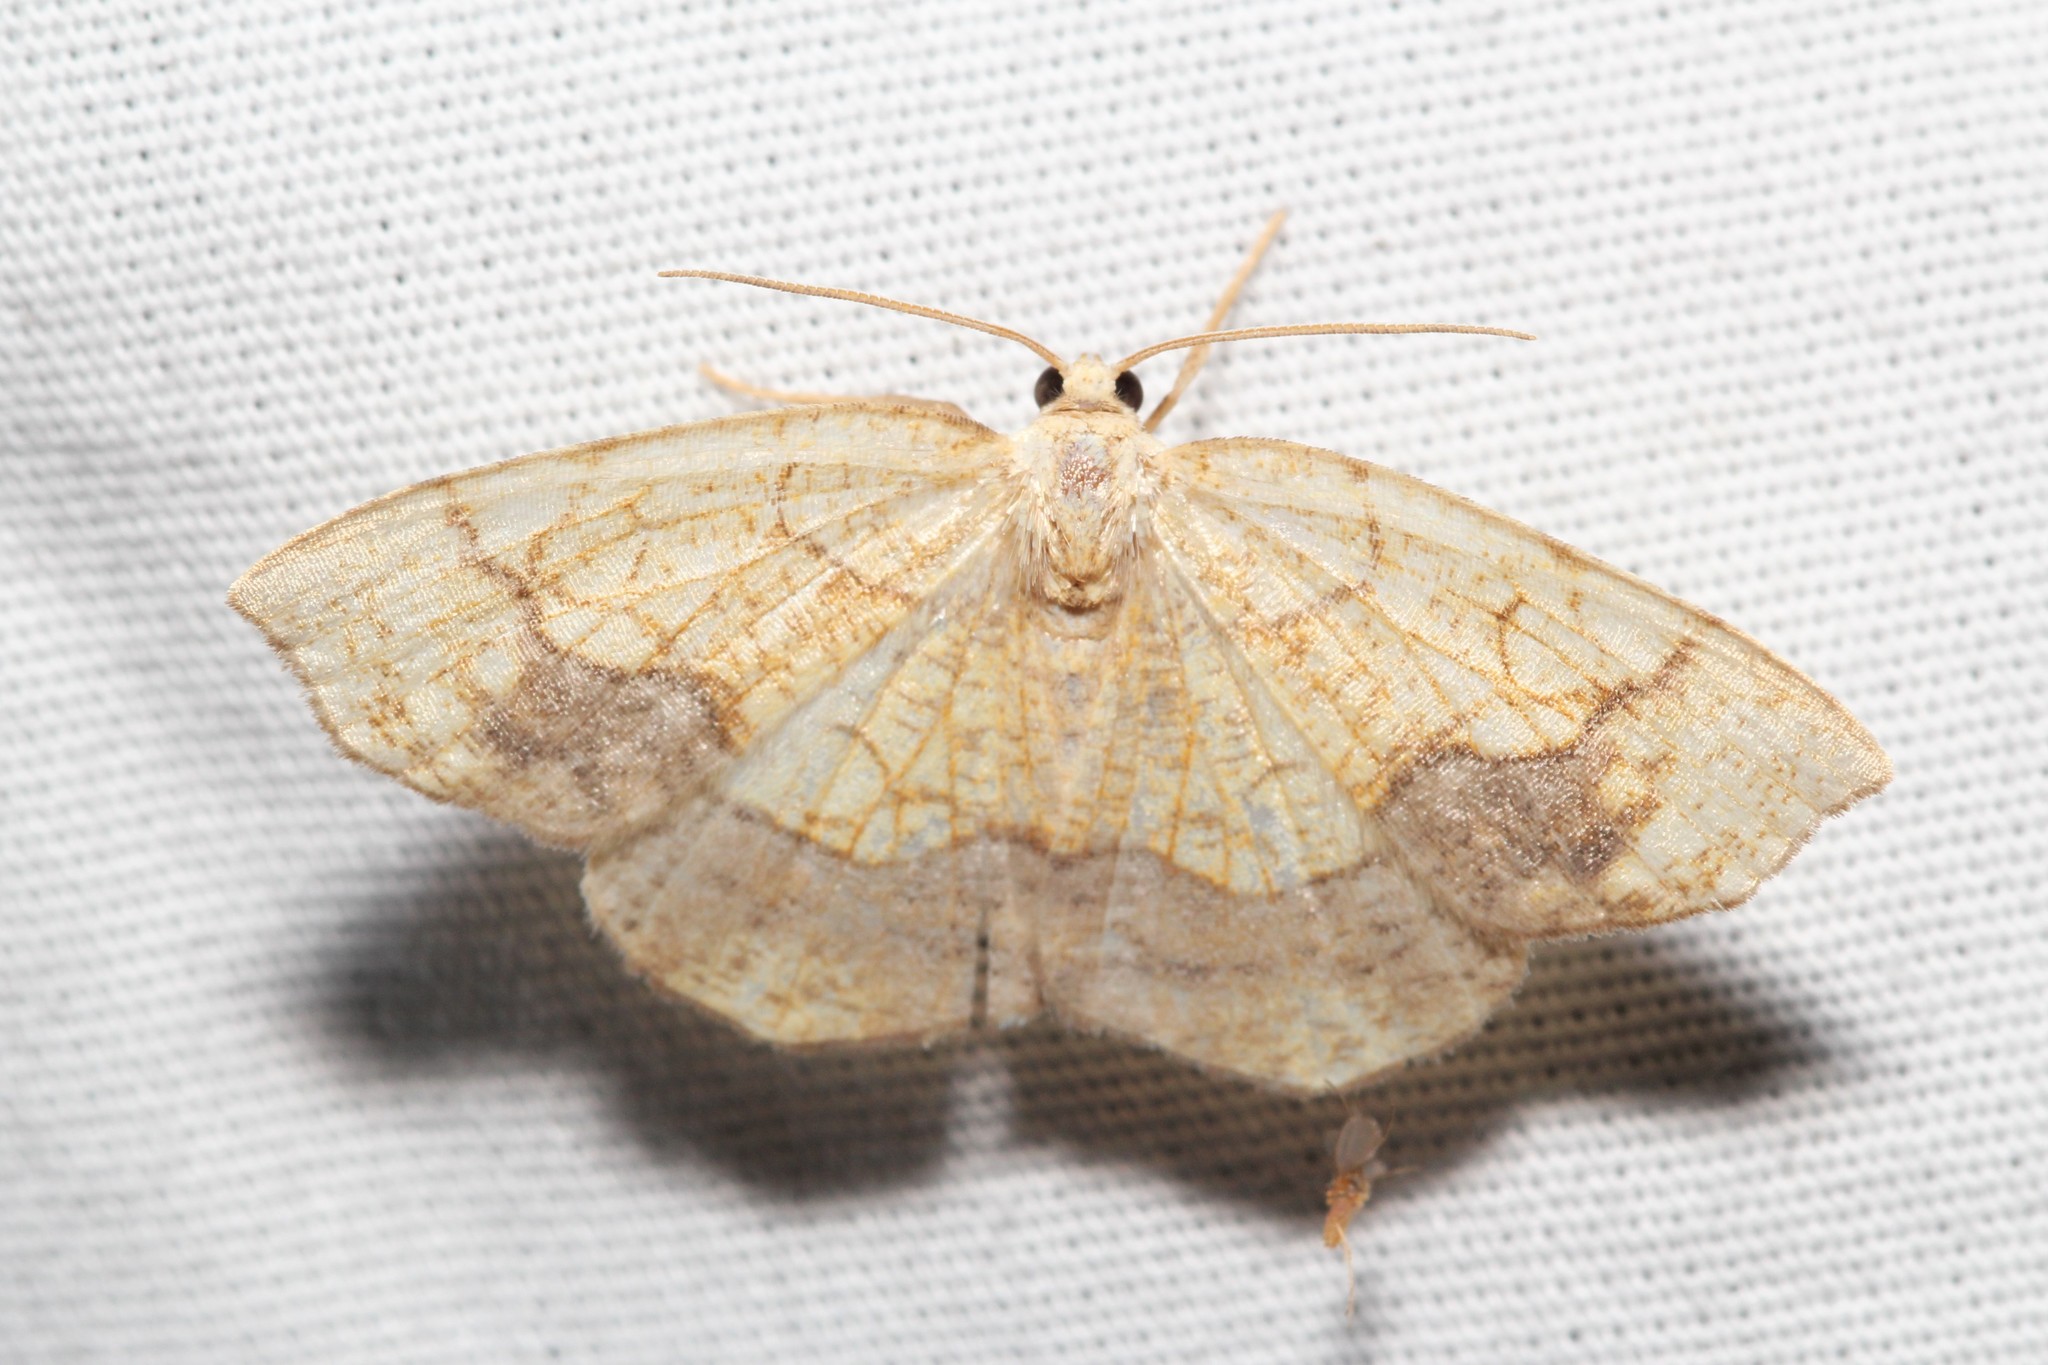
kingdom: Animalia
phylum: Arthropoda
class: Insecta
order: Lepidoptera
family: Geometridae
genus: Nematocampa
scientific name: Nematocampa resistaria
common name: Horned spanworm moth
